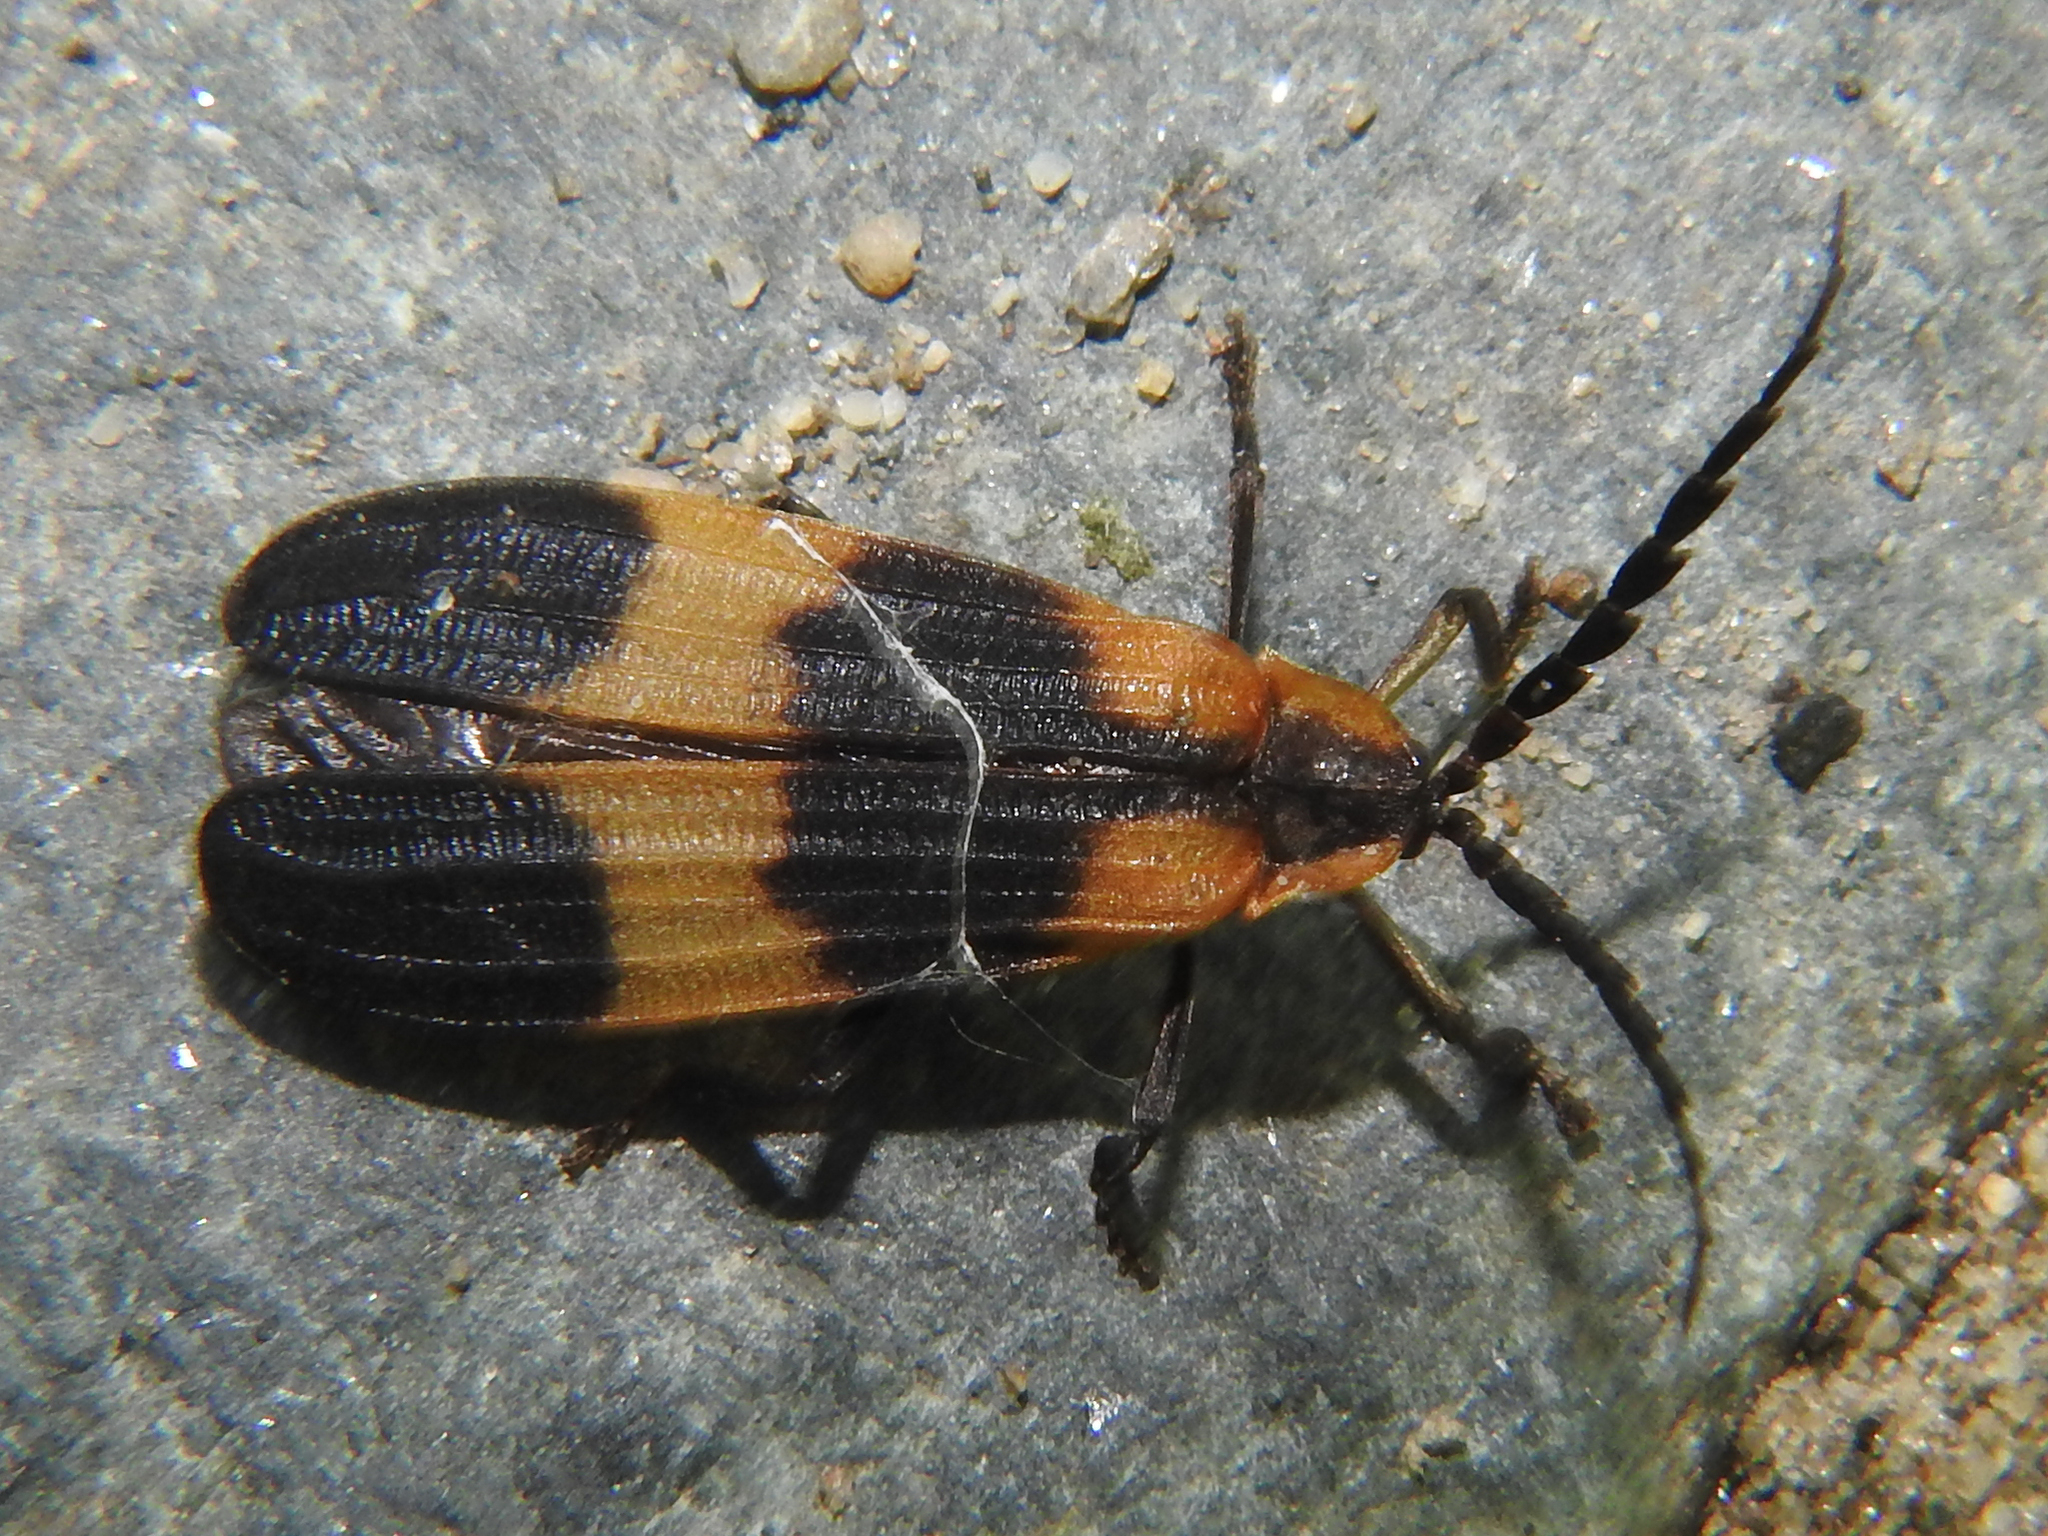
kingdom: Animalia
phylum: Arthropoda
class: Insecta
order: Coleoptera
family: Lycidae
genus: Calopteron
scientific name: Calopteron reticulatum
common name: Banded net-winged beetle
